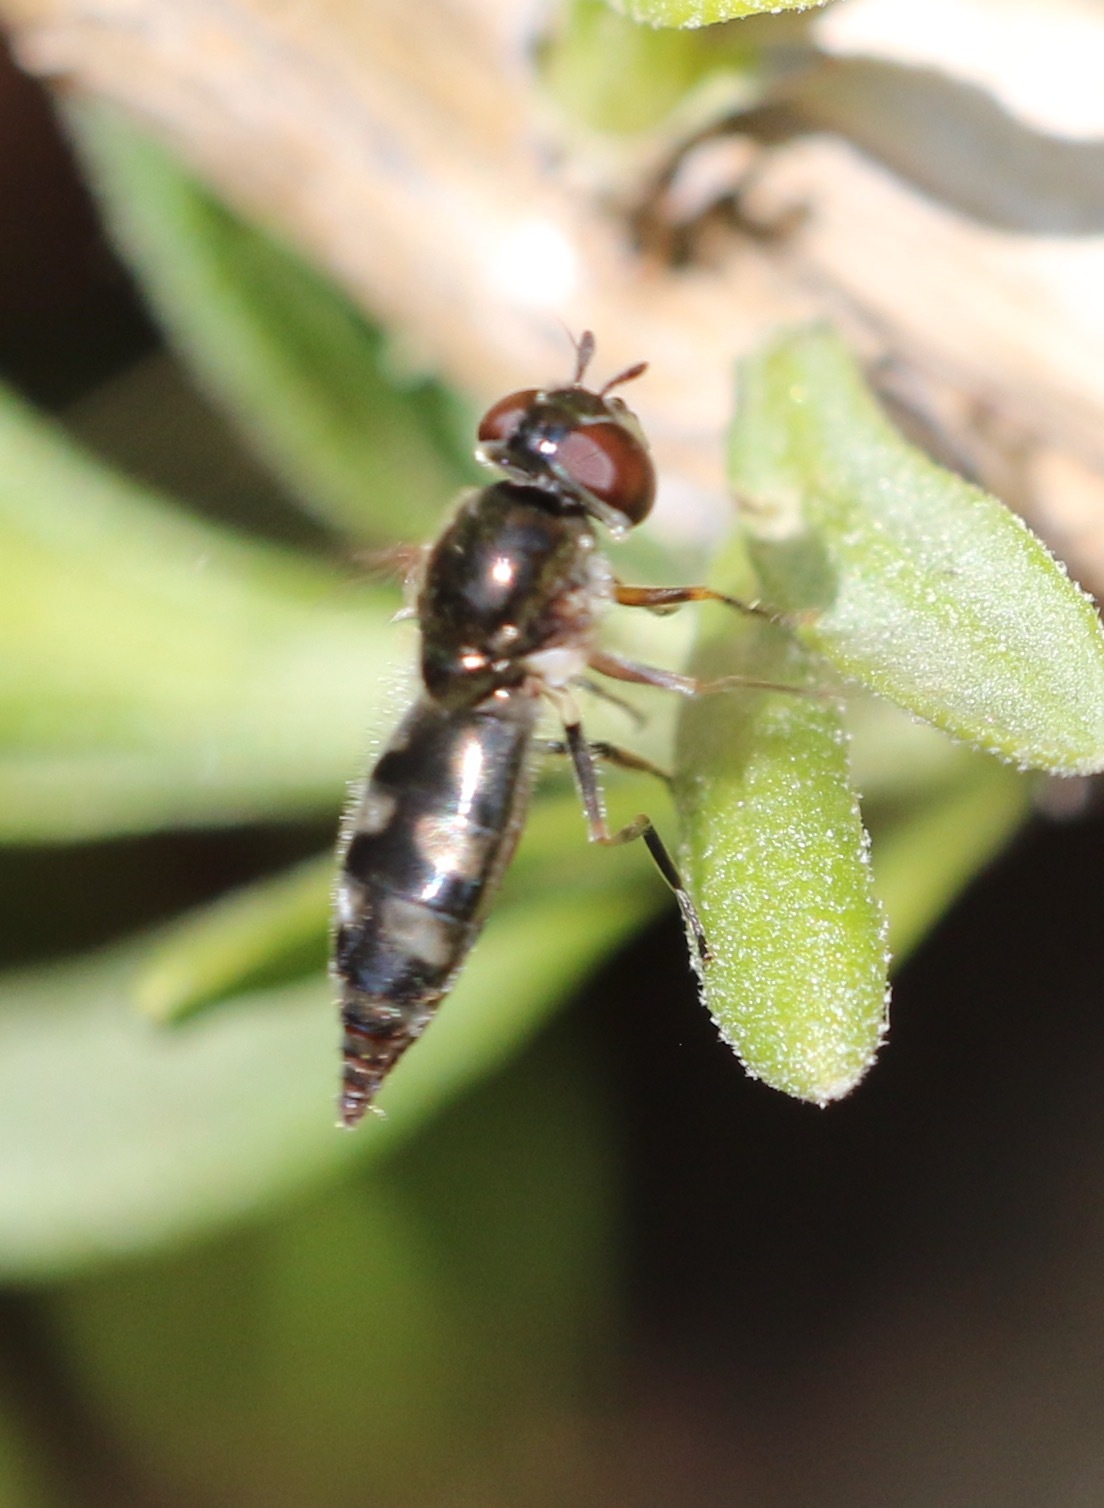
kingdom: Animalia
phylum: Arthropoda
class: Insecta
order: Diptera
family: Syrphidae
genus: Platycheirus
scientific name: Platycheirus albimanus
